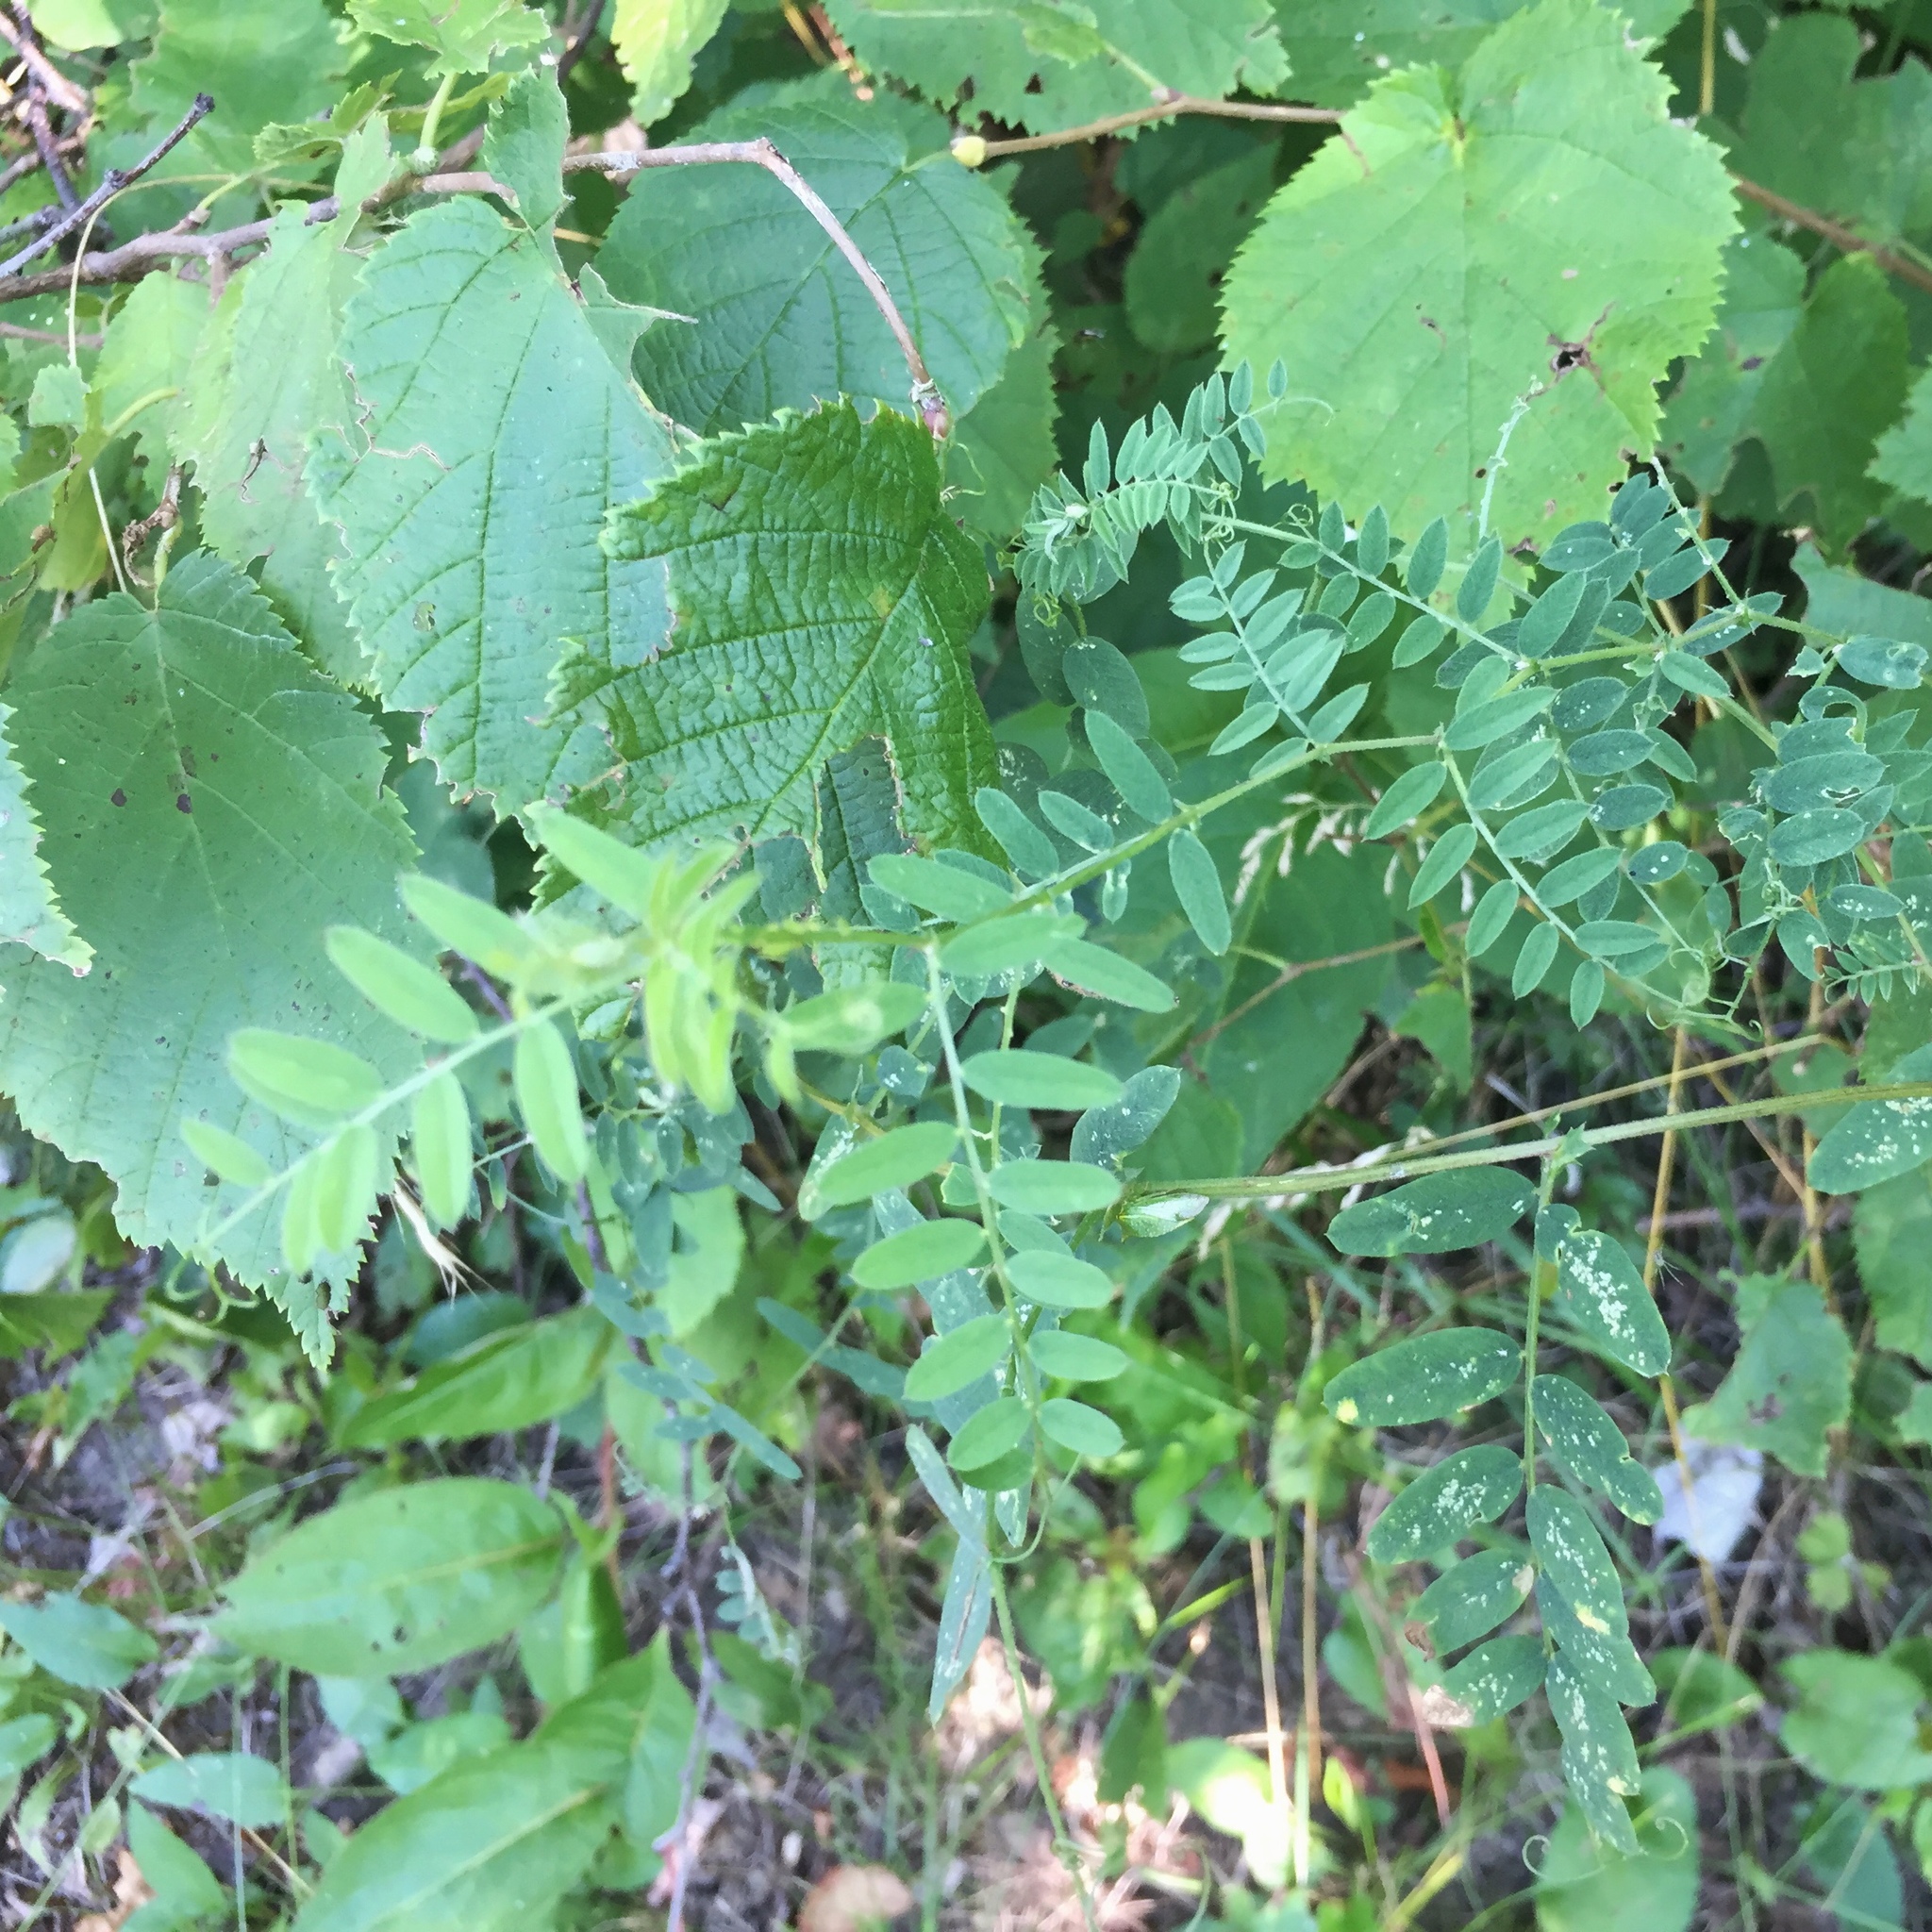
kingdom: Plantae
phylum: Tracheophyta
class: Magnoliopsida
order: Fabales
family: Fabaceae
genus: Vicia
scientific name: Vicia americana
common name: American vetch
